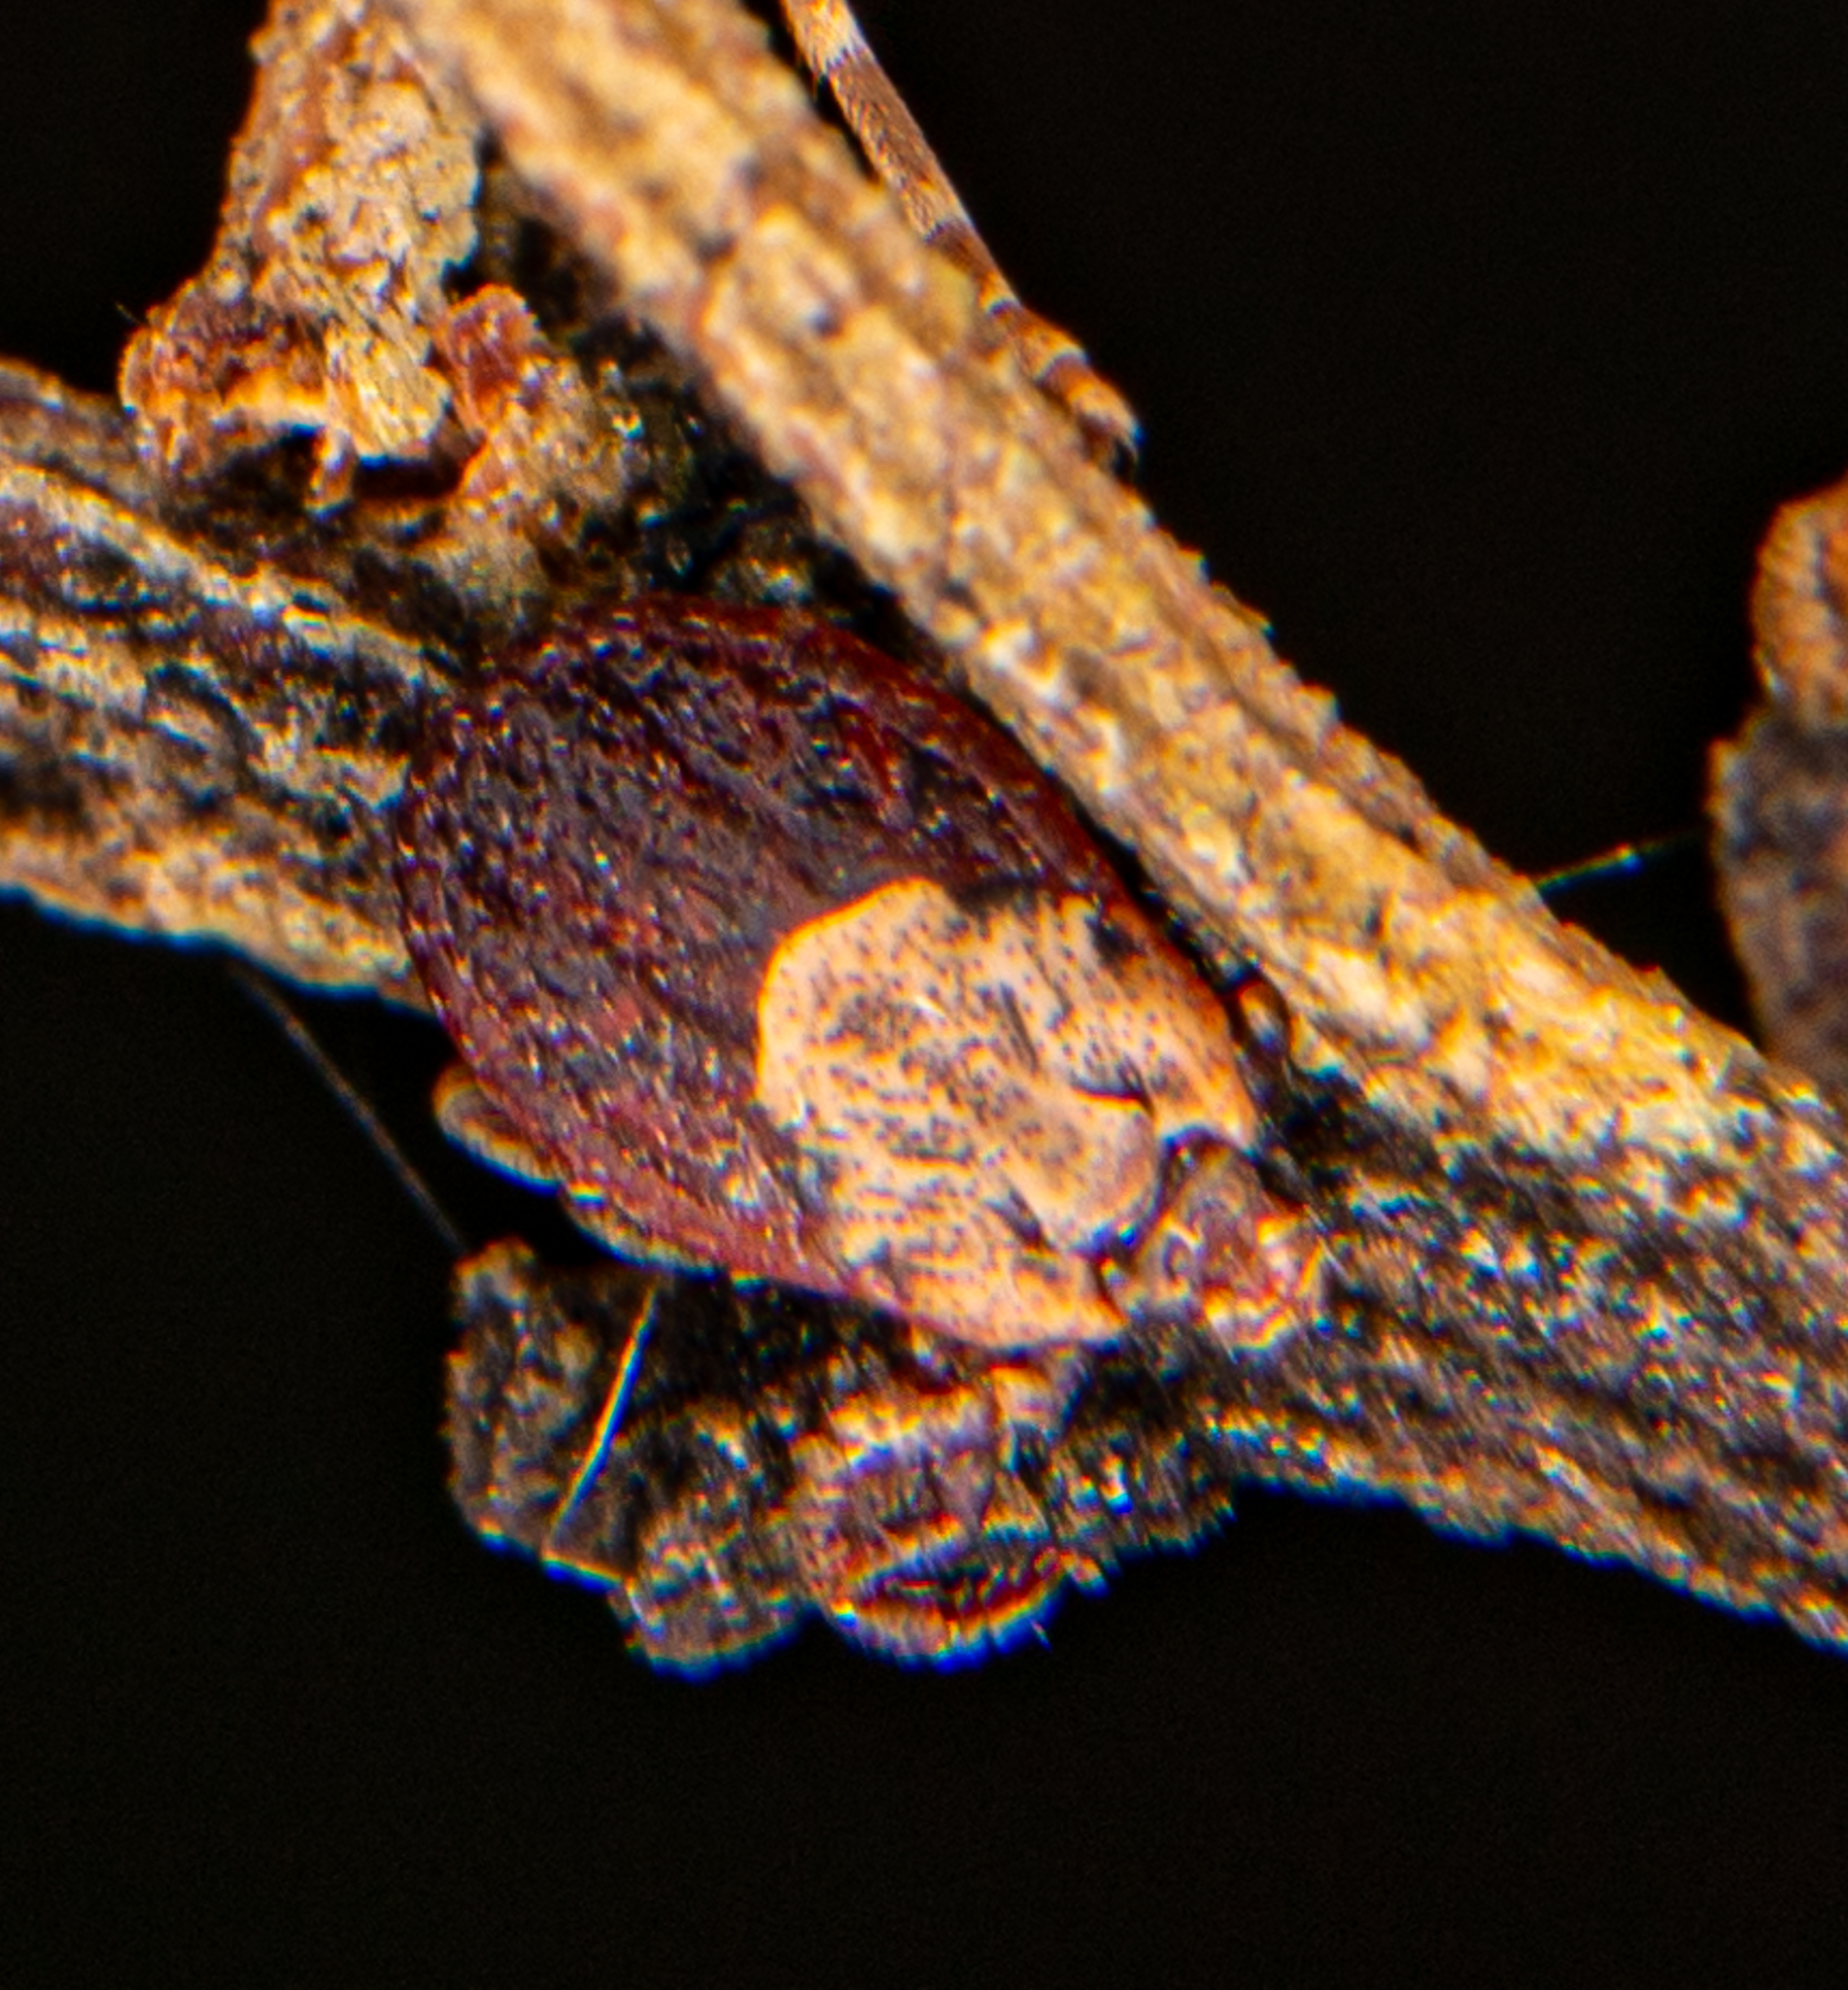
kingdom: Animalia
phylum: Arthropoda
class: Arachnida
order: Ixodida
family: Ixodidae
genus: Dermacentor
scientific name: Dermacentor occidentalis
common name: Net tick
